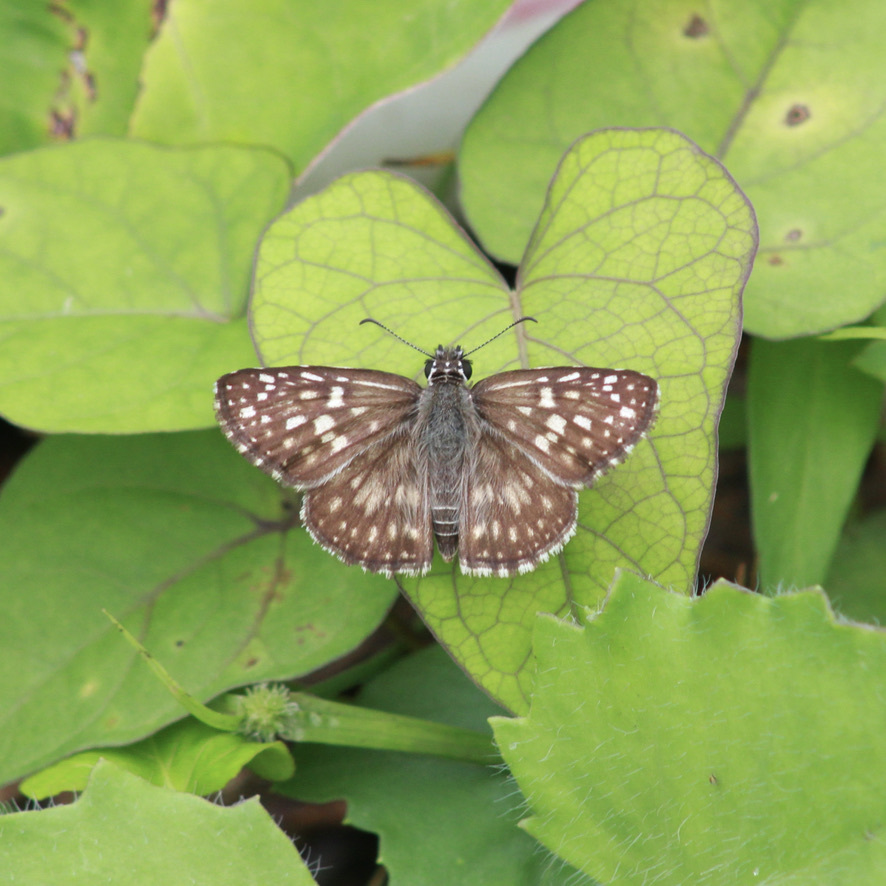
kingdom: Animalia
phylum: Arthropoda
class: Insecta
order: Lepidoptera
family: Hesperiidae
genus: Pyrgus
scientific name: Pyrgus oileus
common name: Tropical checkered-skipper
